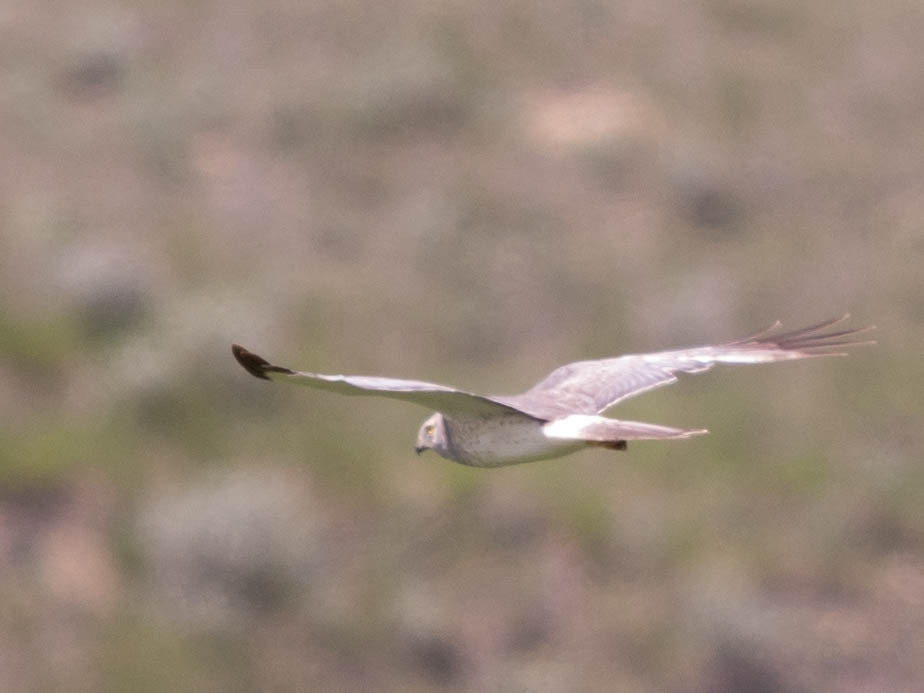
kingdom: Animalia
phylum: Chordata
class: Aves
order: Accipitriformes
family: Accipitridae
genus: Circus
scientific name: Circus cyaneus
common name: Hen harrier
